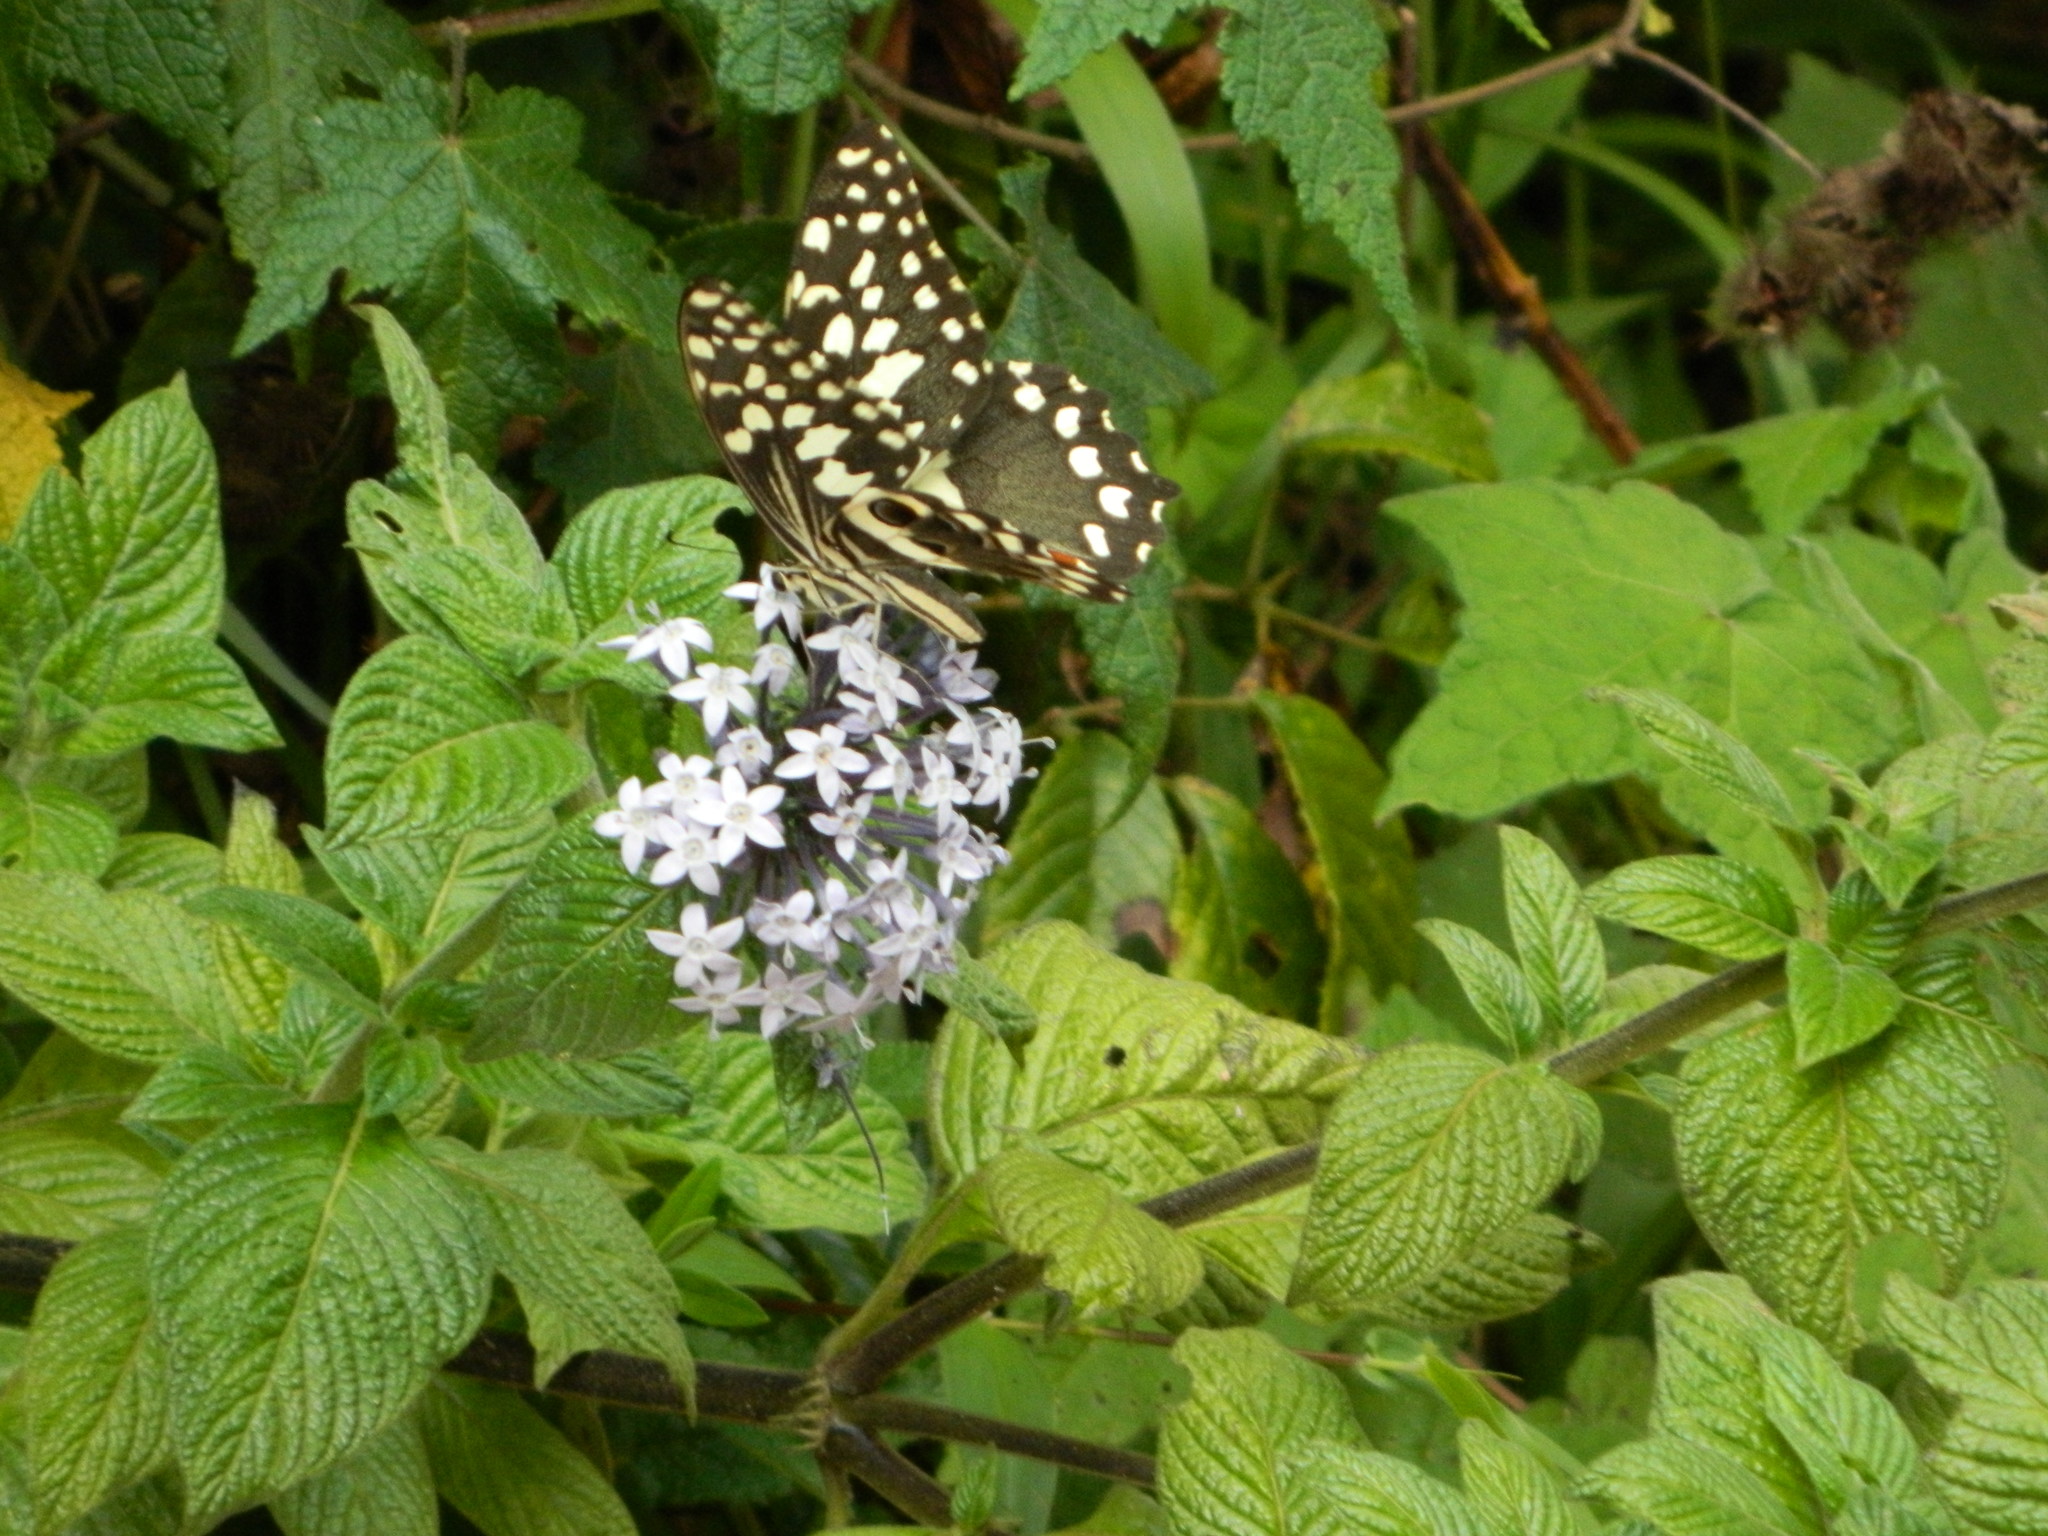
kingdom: Animalia
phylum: Arthropoda
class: Insecta
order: Lepidoptera
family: Papilionidae
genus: Papilio
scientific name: Papilio demodocus
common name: Christmas butterfly
